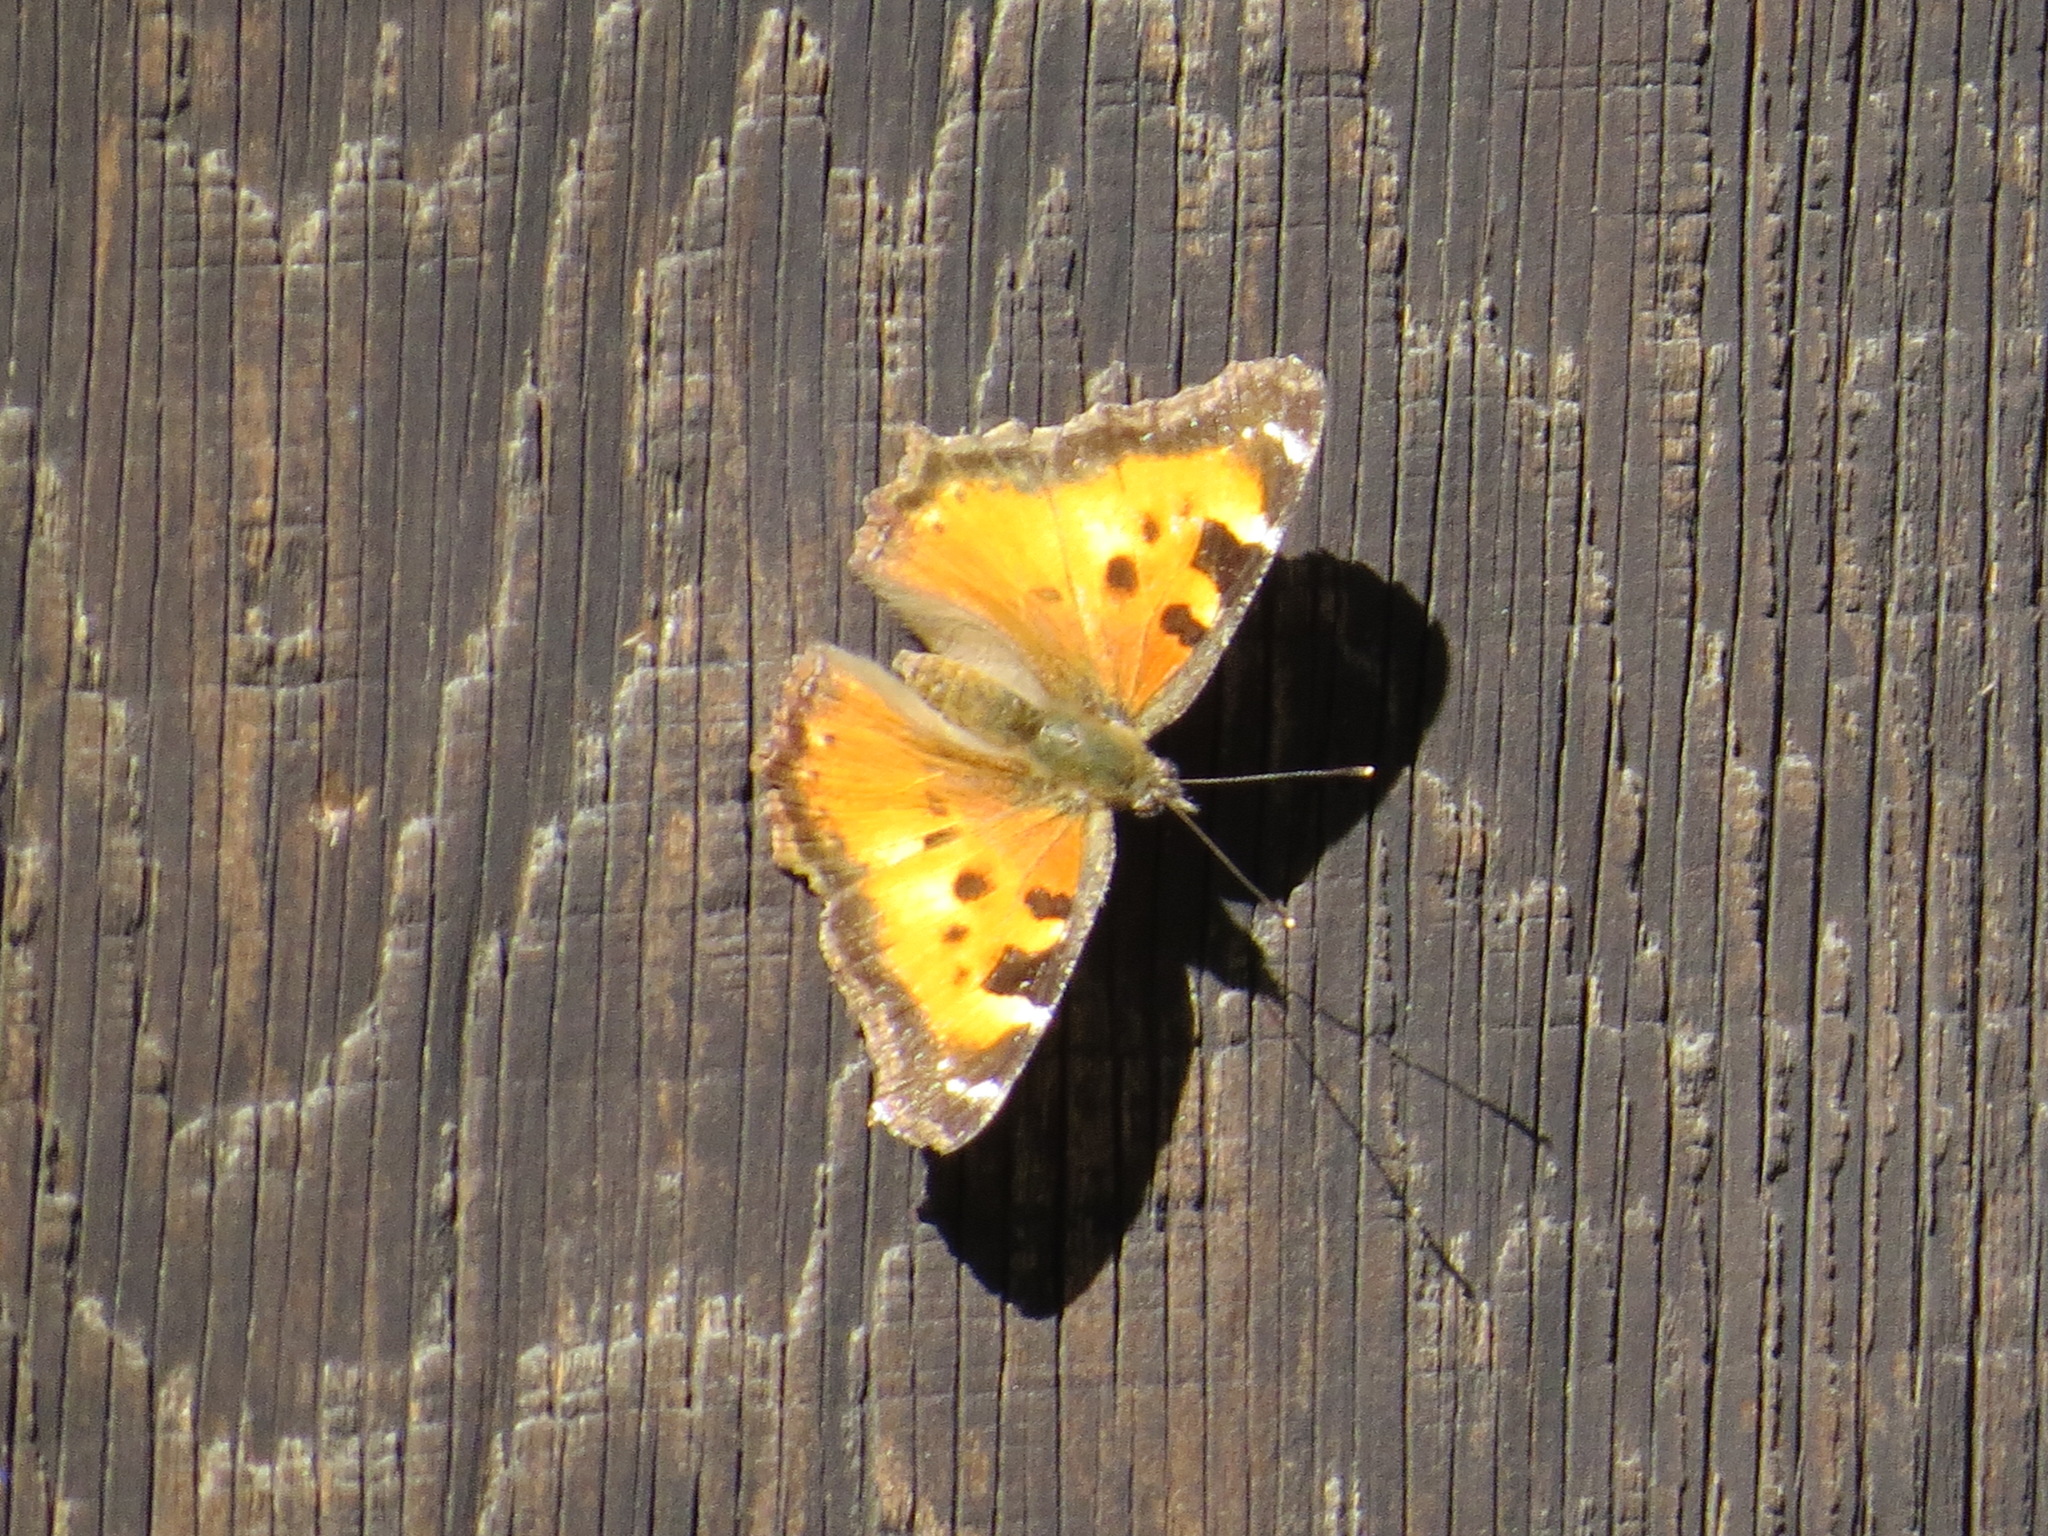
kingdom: Animalia
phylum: Arthropoda
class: Insecta
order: Lepidoptera
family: Nymphalidae
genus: Nymphalis
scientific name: Nymphalis californica
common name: California tortoiseshell
